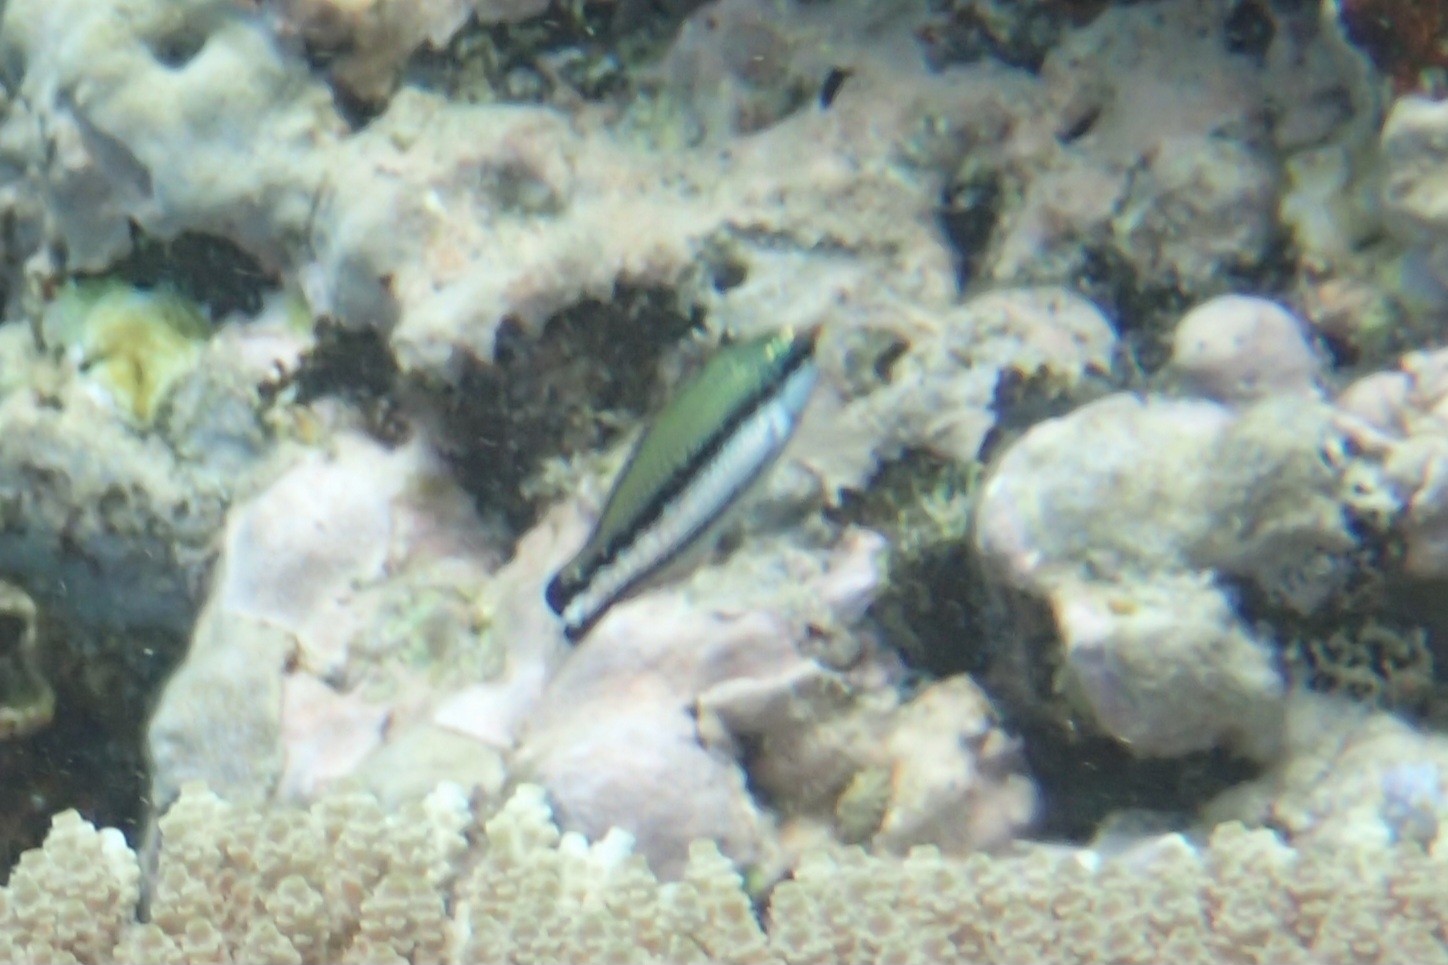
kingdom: Animalia
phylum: Chordata
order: Perciformes
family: Labridae
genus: Gomphosus
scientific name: Gomphosus varius
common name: Bird wrasse
